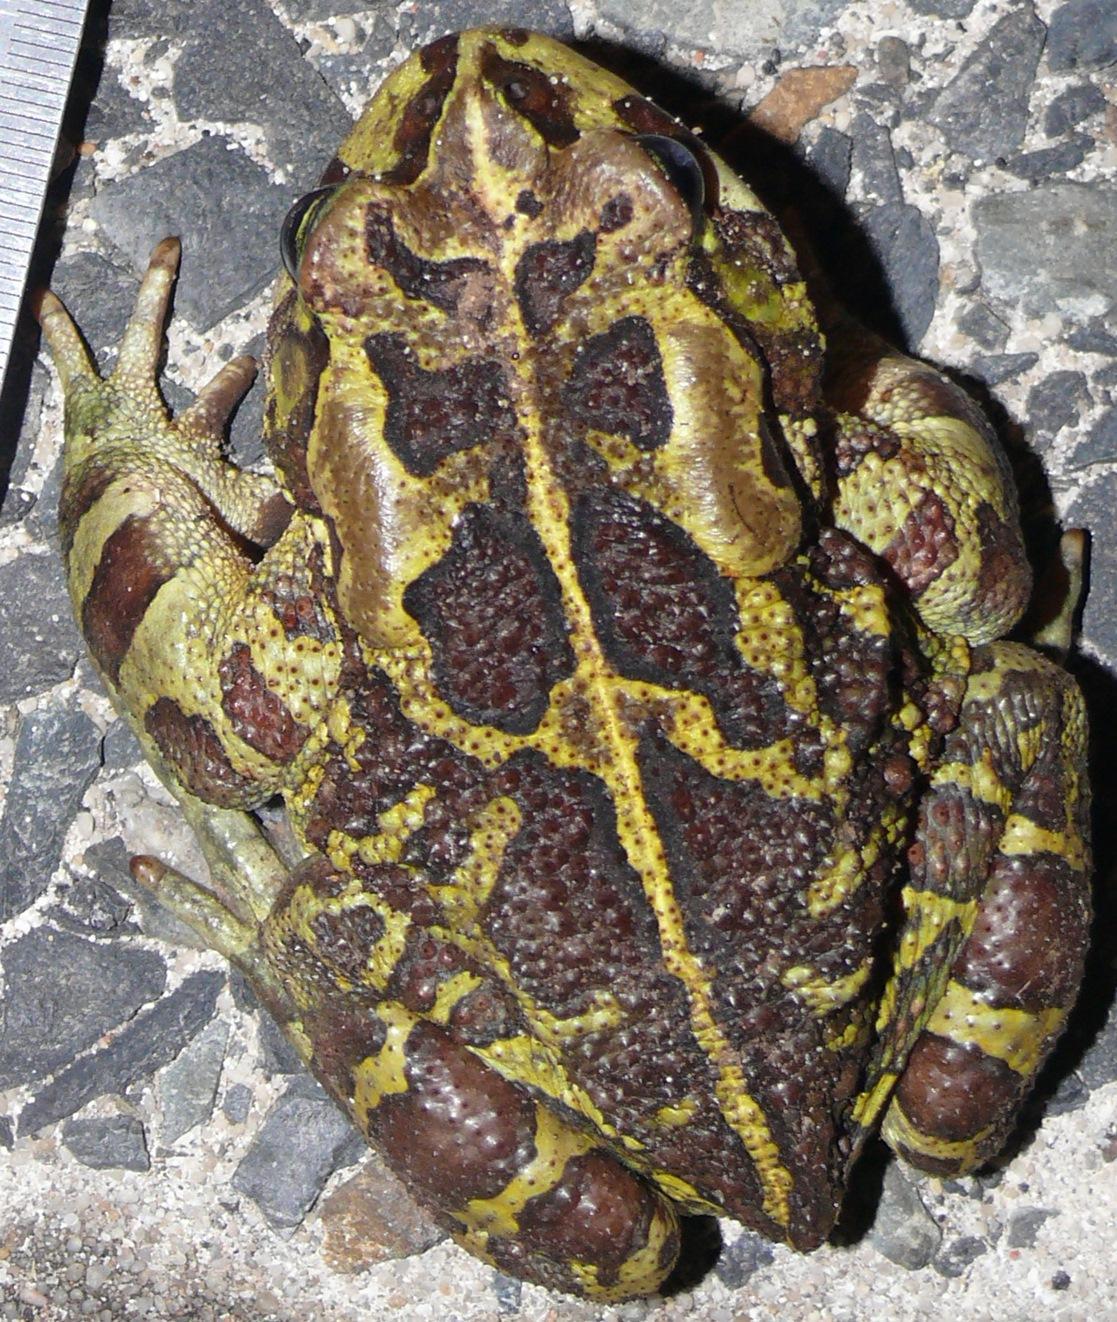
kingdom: Animalia
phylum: Chordata
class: Amphibia
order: Anura
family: Bufonidae
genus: Sclerophrys
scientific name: Sclerophrys pantherina
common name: Panther toad
